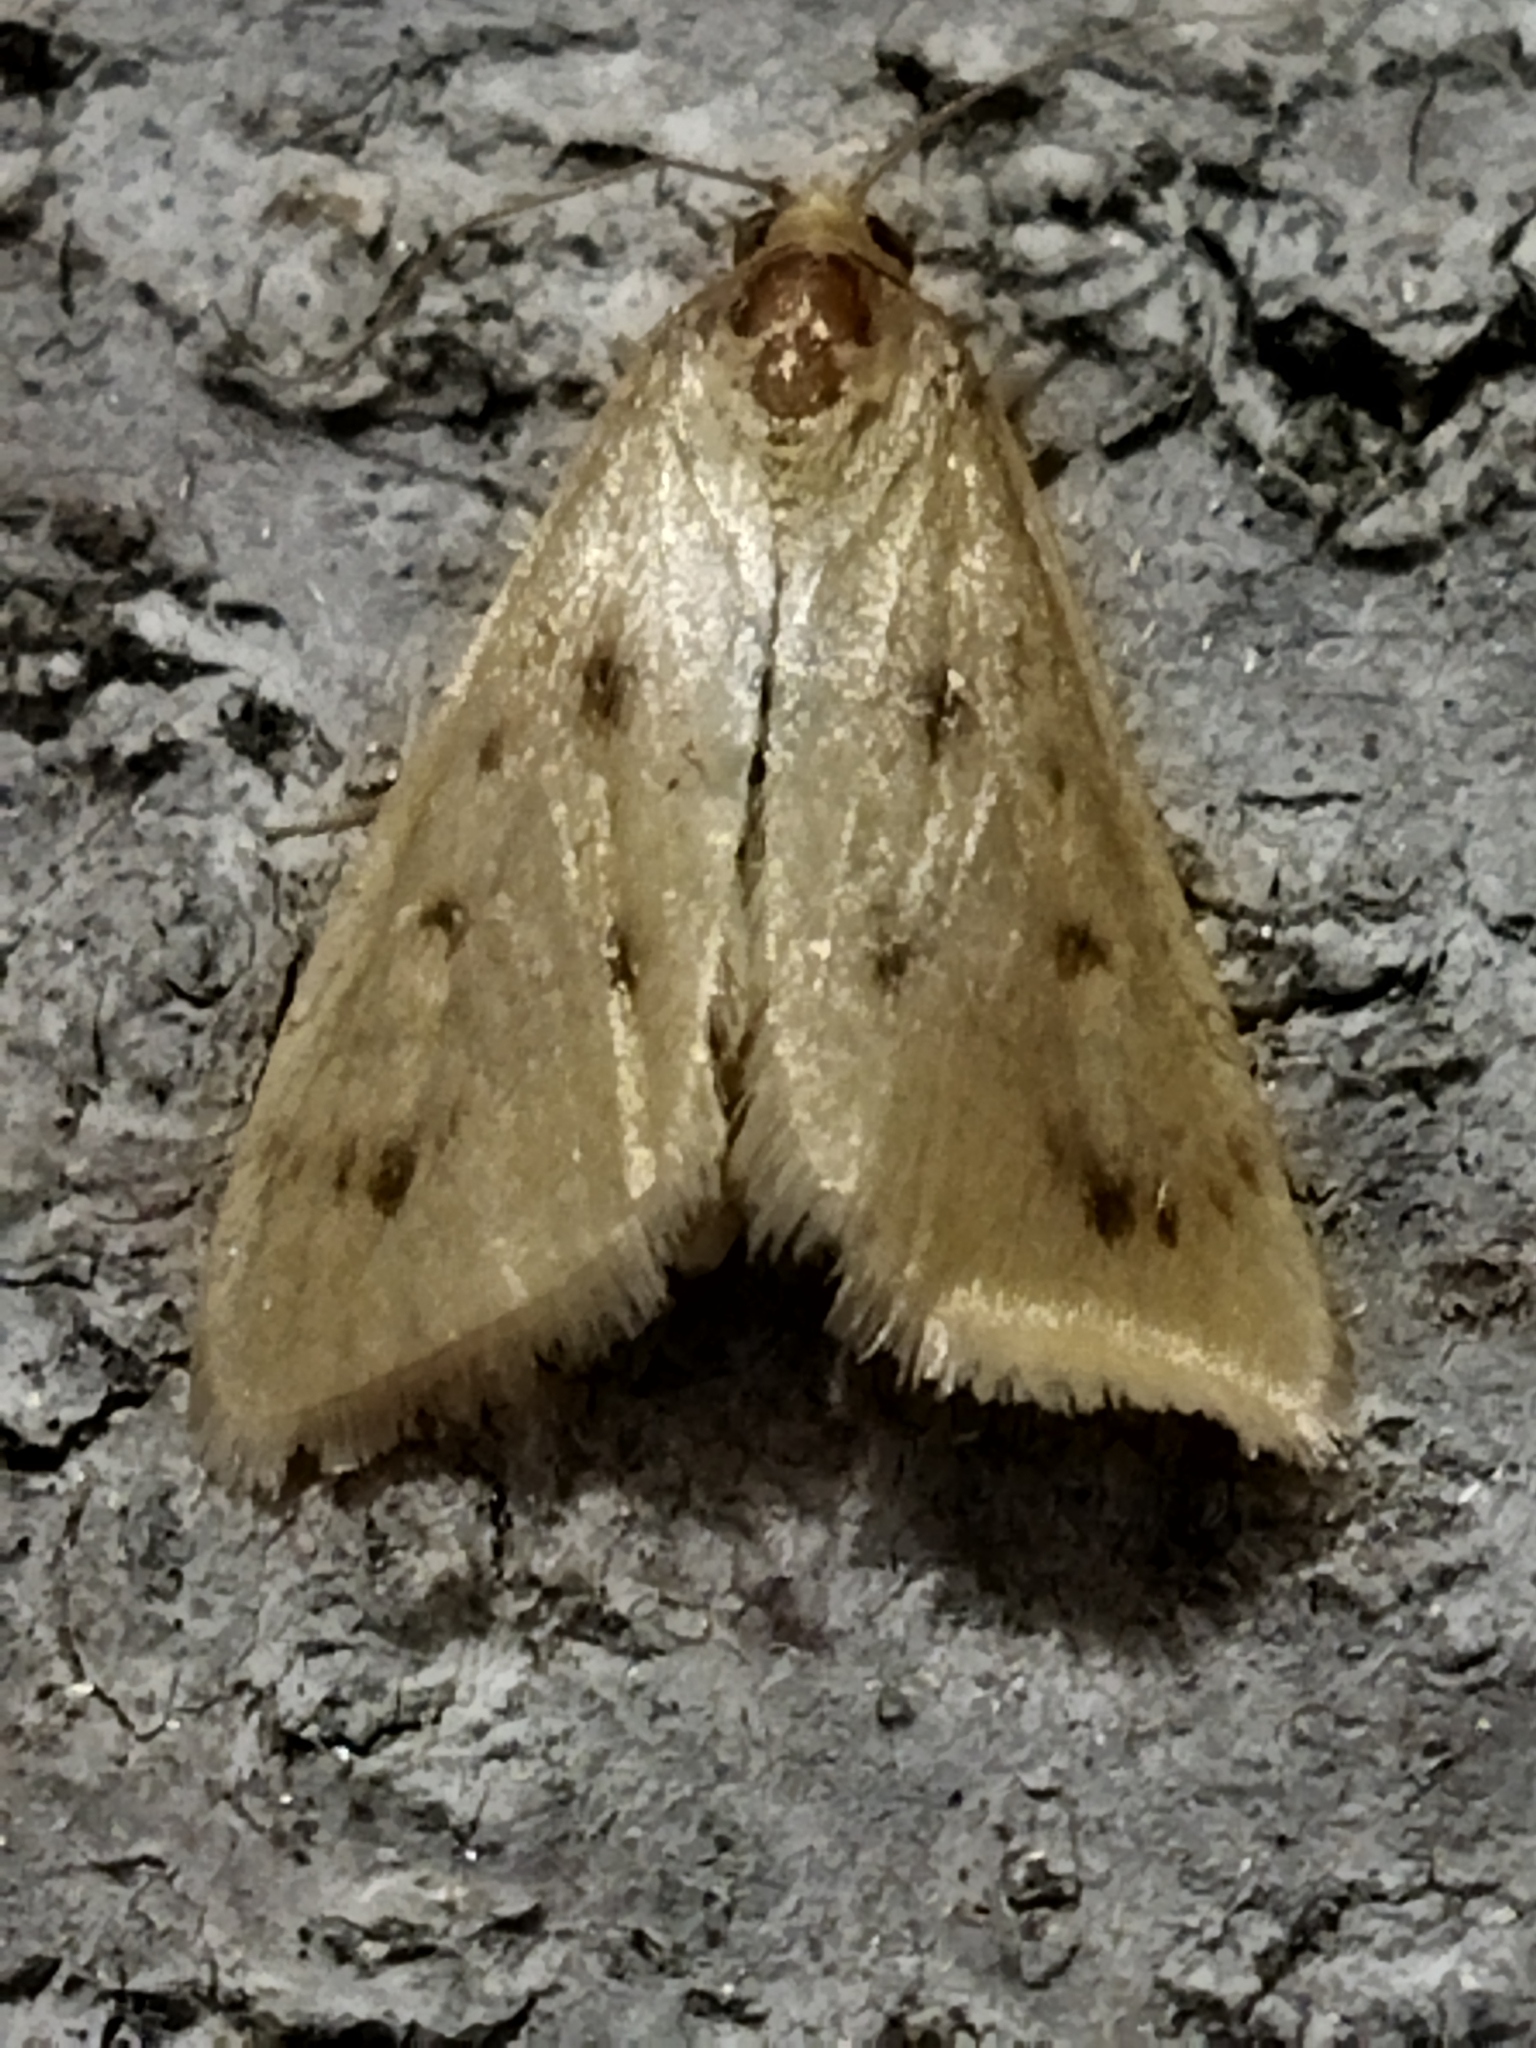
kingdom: Animalia
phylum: Arthropoda
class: Insecta
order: Lepidoptera
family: Crambidae
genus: Achyra
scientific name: Achyra nudalis
